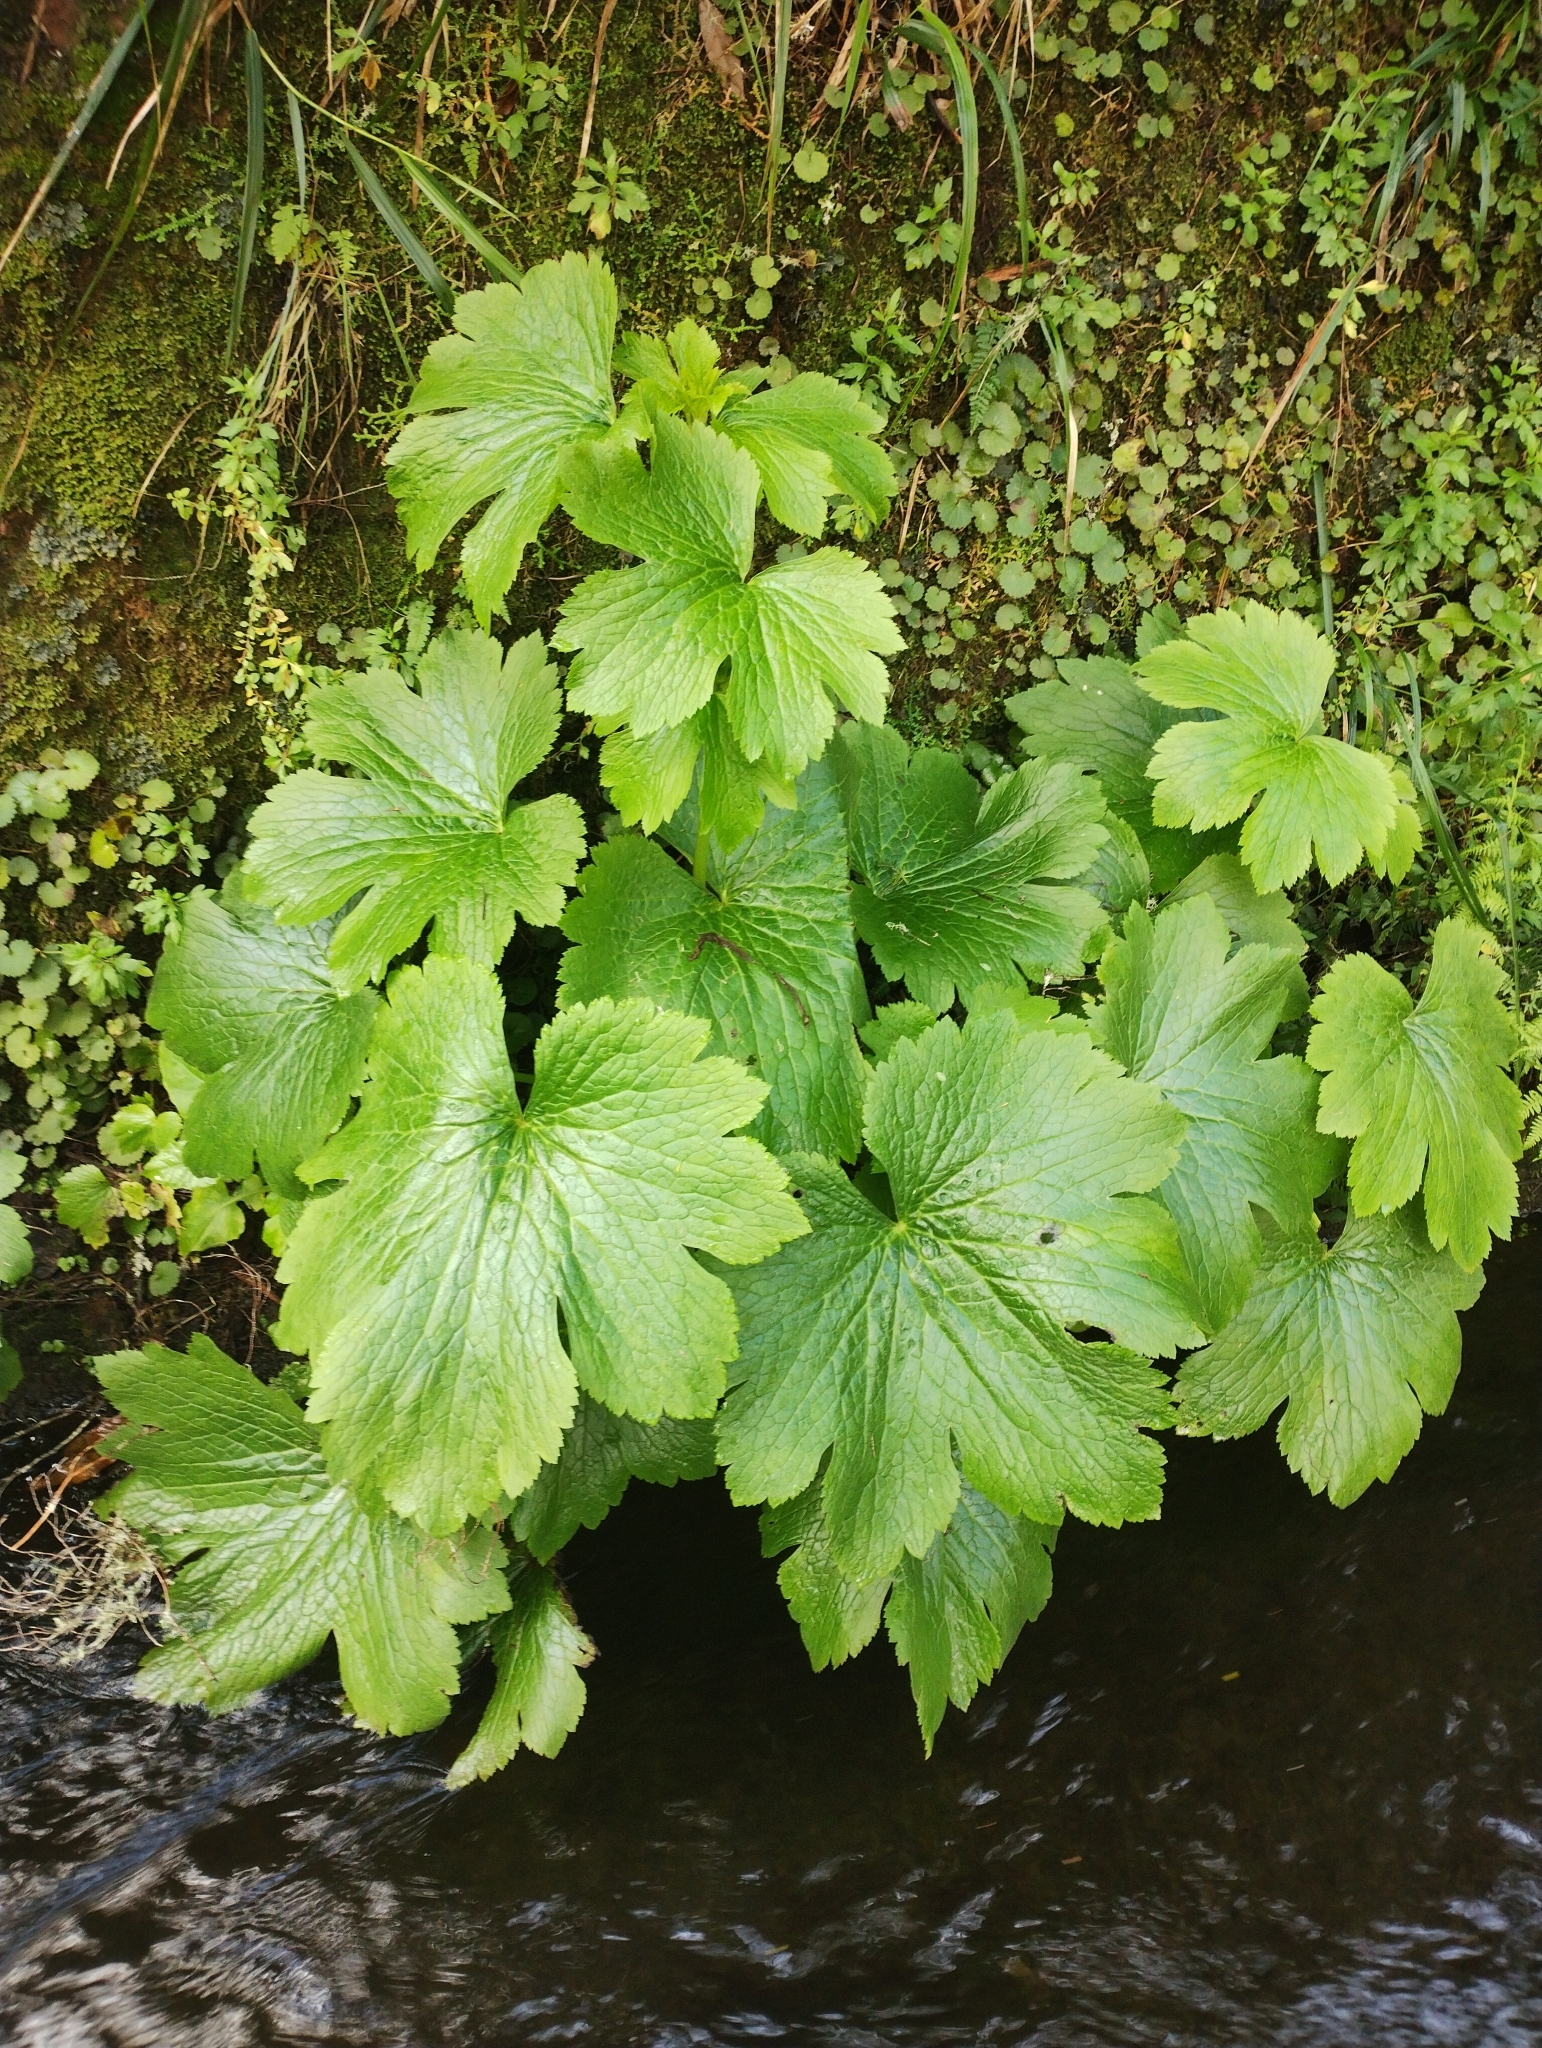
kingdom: Plantae
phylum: Tracheophyta
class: Magnoliopsida
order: Ranunculales
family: Ranunculaceae
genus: Ranunculus
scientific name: Ranunculus cortusifolius
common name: Azores buttercup
